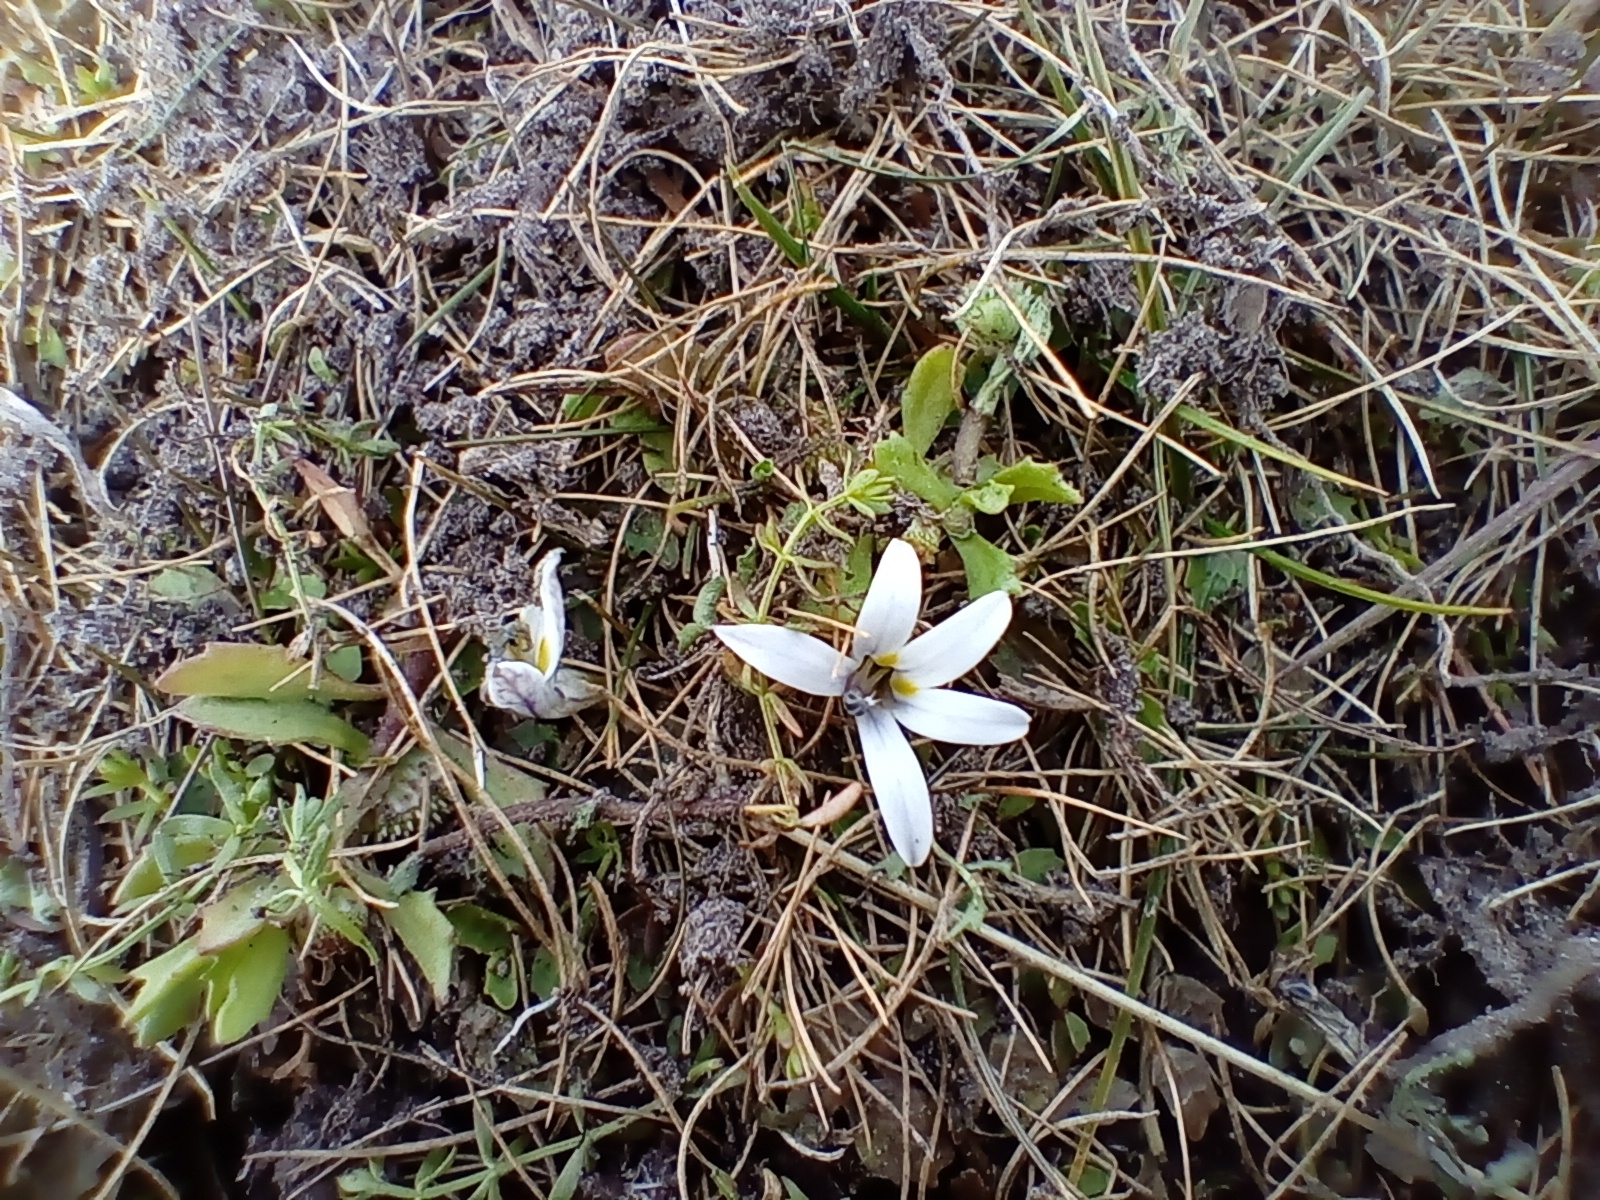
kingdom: Plantae
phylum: Tracheophyta
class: Magnoliopsida
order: Asterales
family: Campanulaceae
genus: Lobelia
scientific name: Lobelia perpusilla
